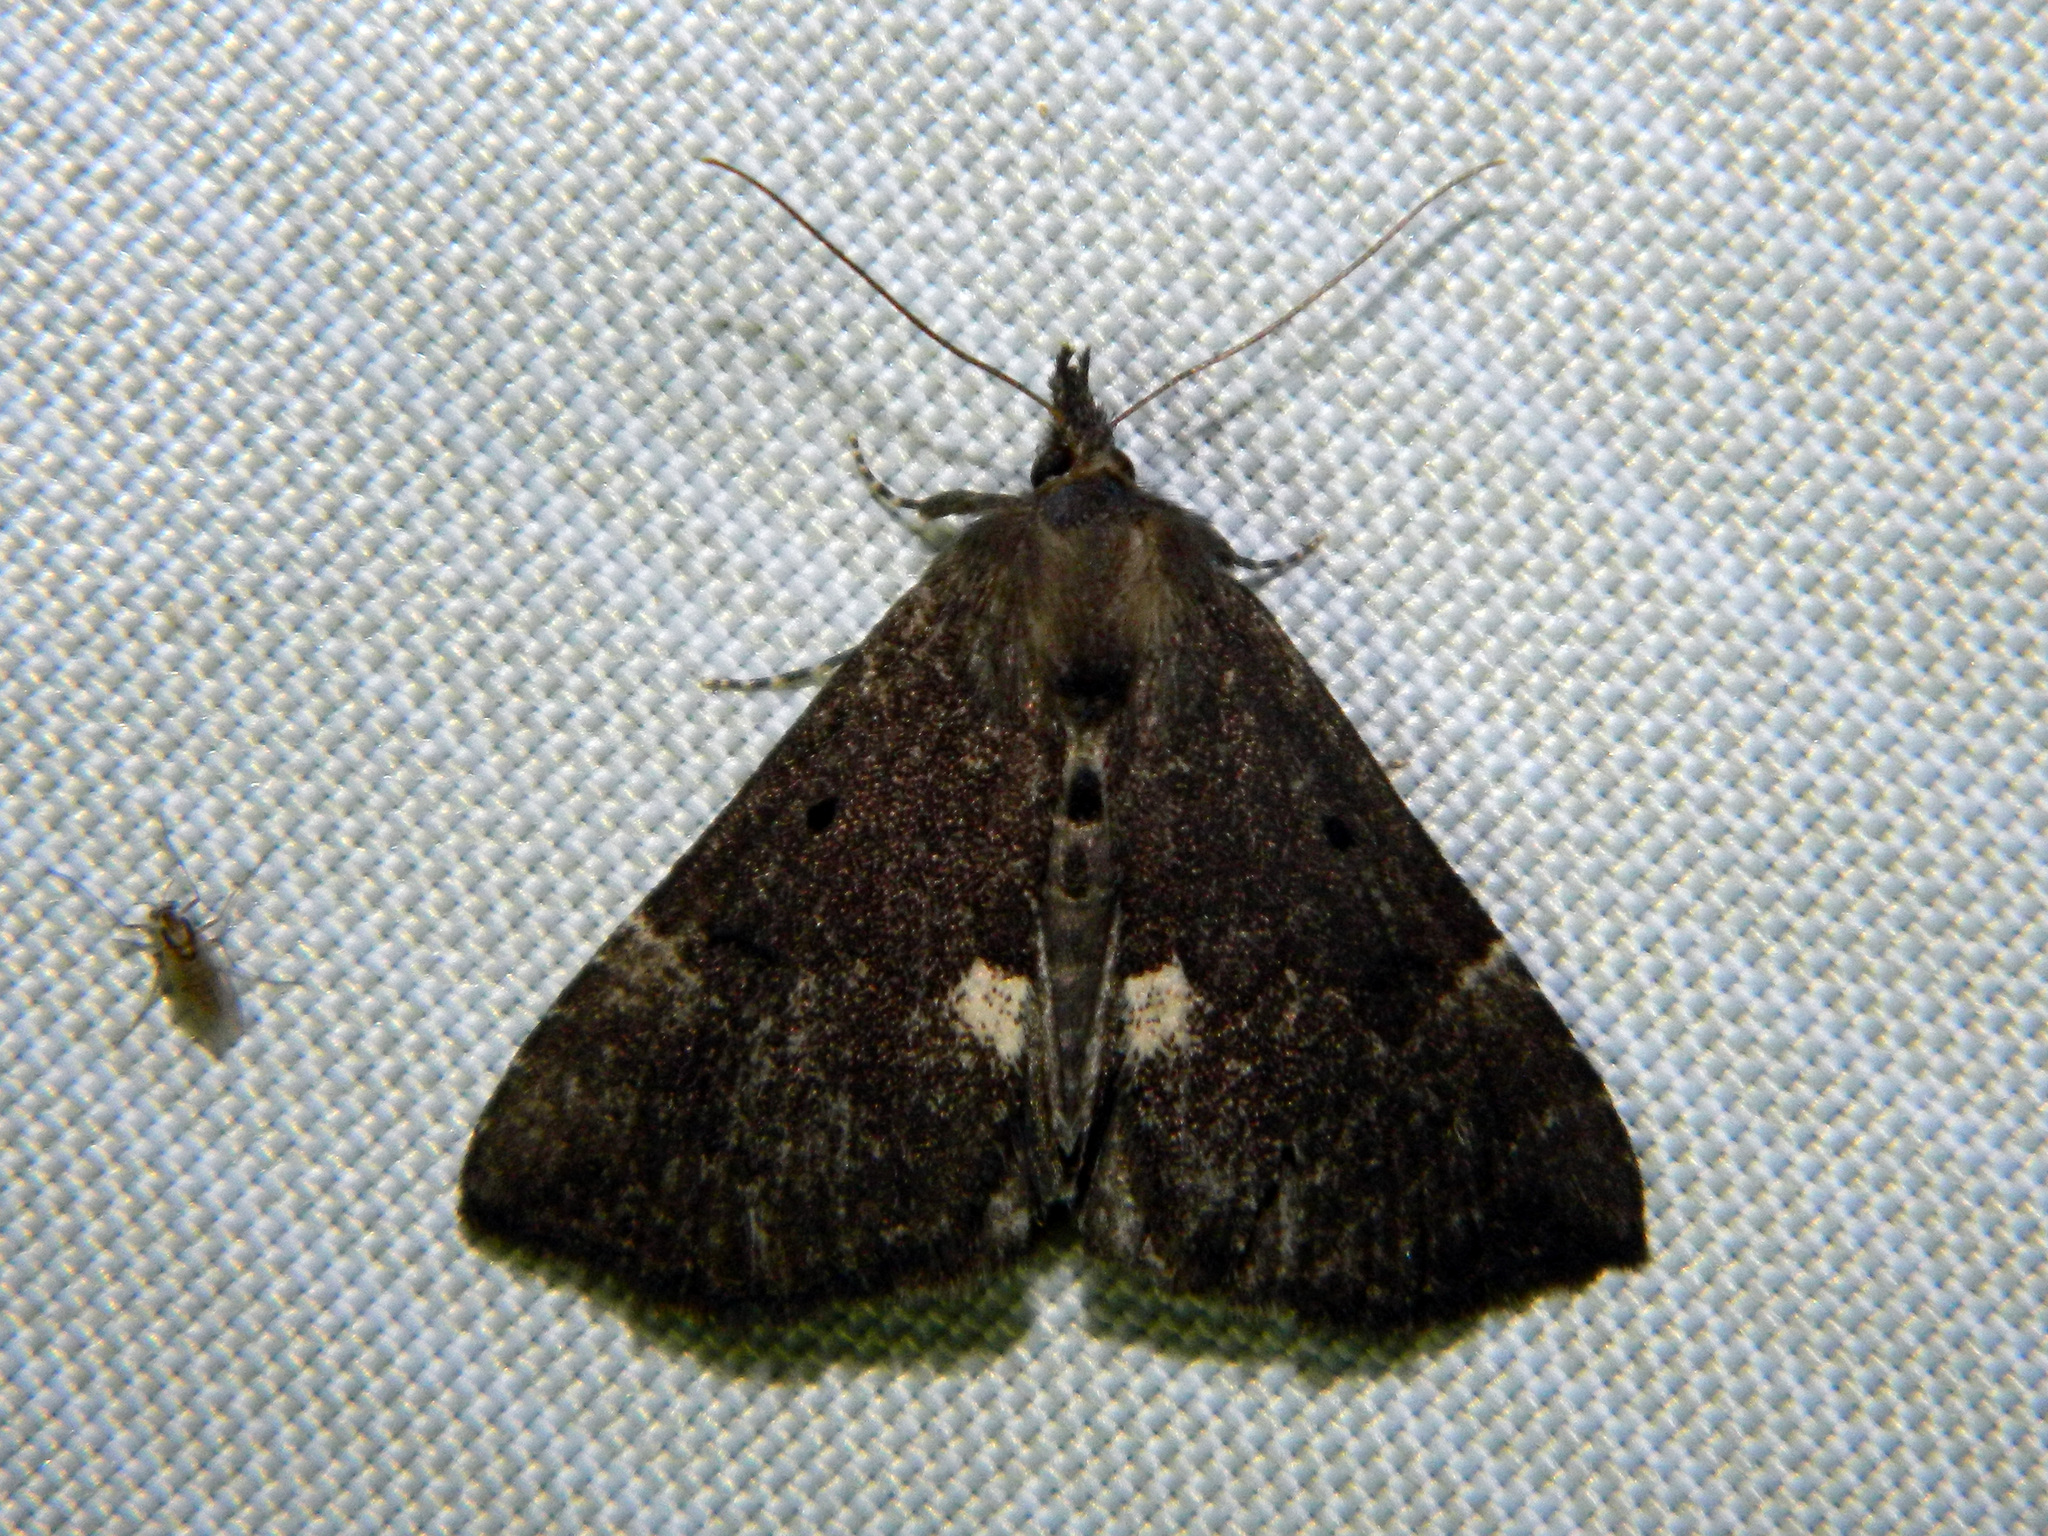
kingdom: Animalia
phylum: Arthropoda
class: Insecta
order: Lepidoptera
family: Erebidae
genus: Hypena
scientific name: Hypena bijugalis
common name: Dimorphic bomolocha moth
